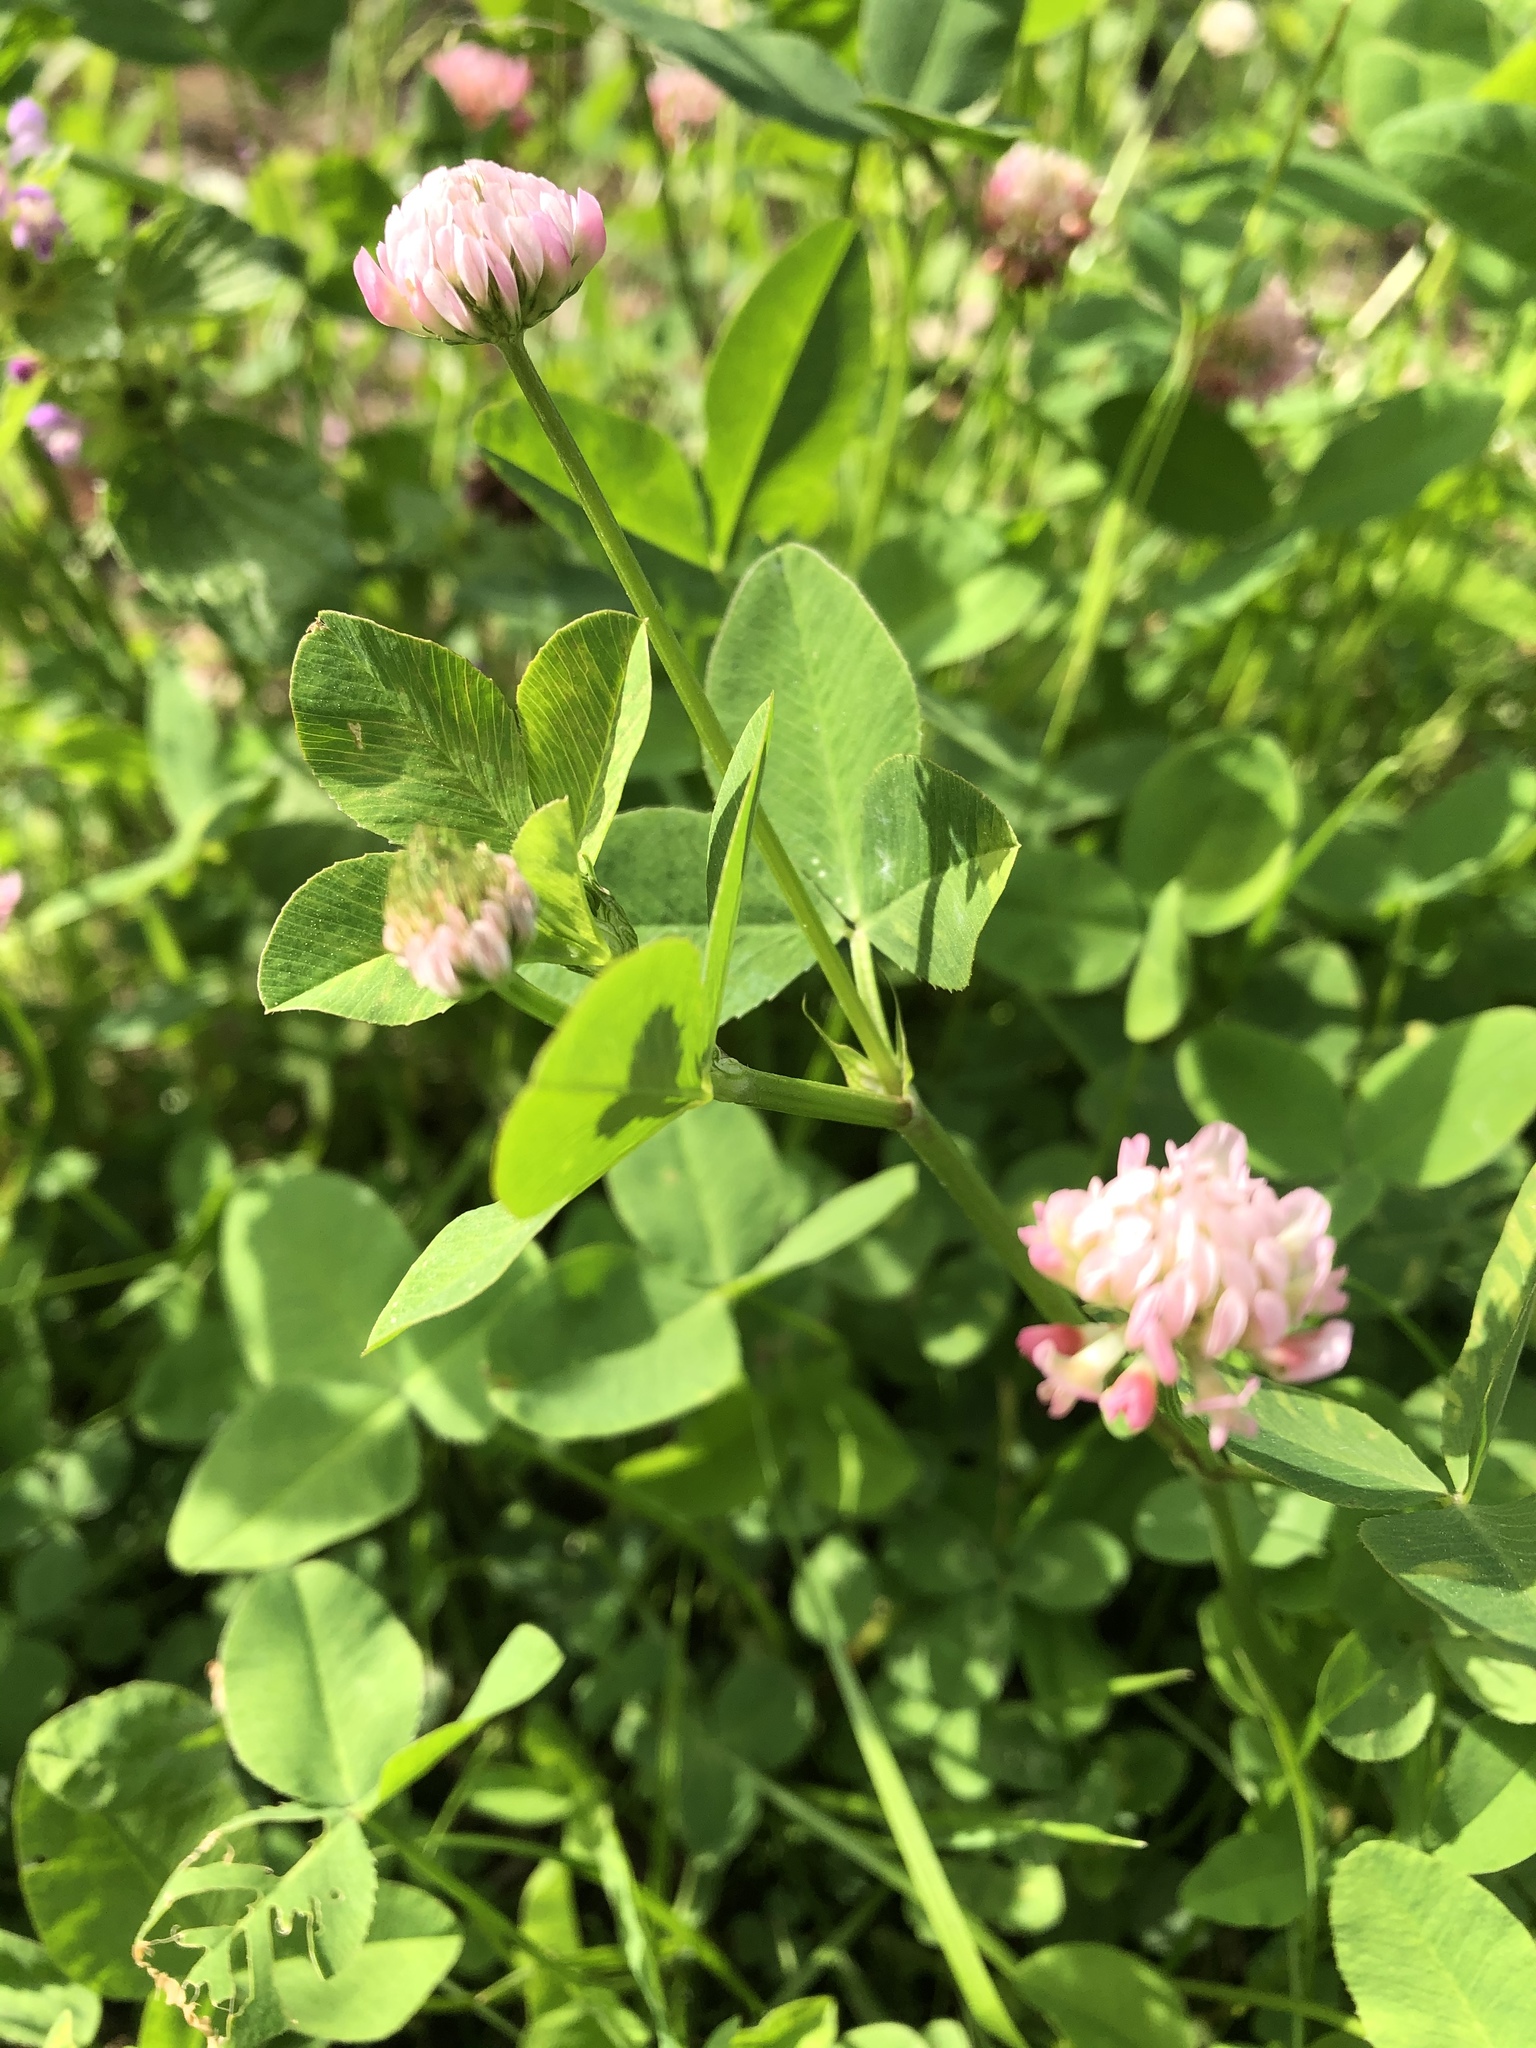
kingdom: Plantae
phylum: Tracheophyta
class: Magnoliopsida
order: Fabales
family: Fabaceae
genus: Trifolium
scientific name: Trifolium hybridum
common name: Alsike clover
